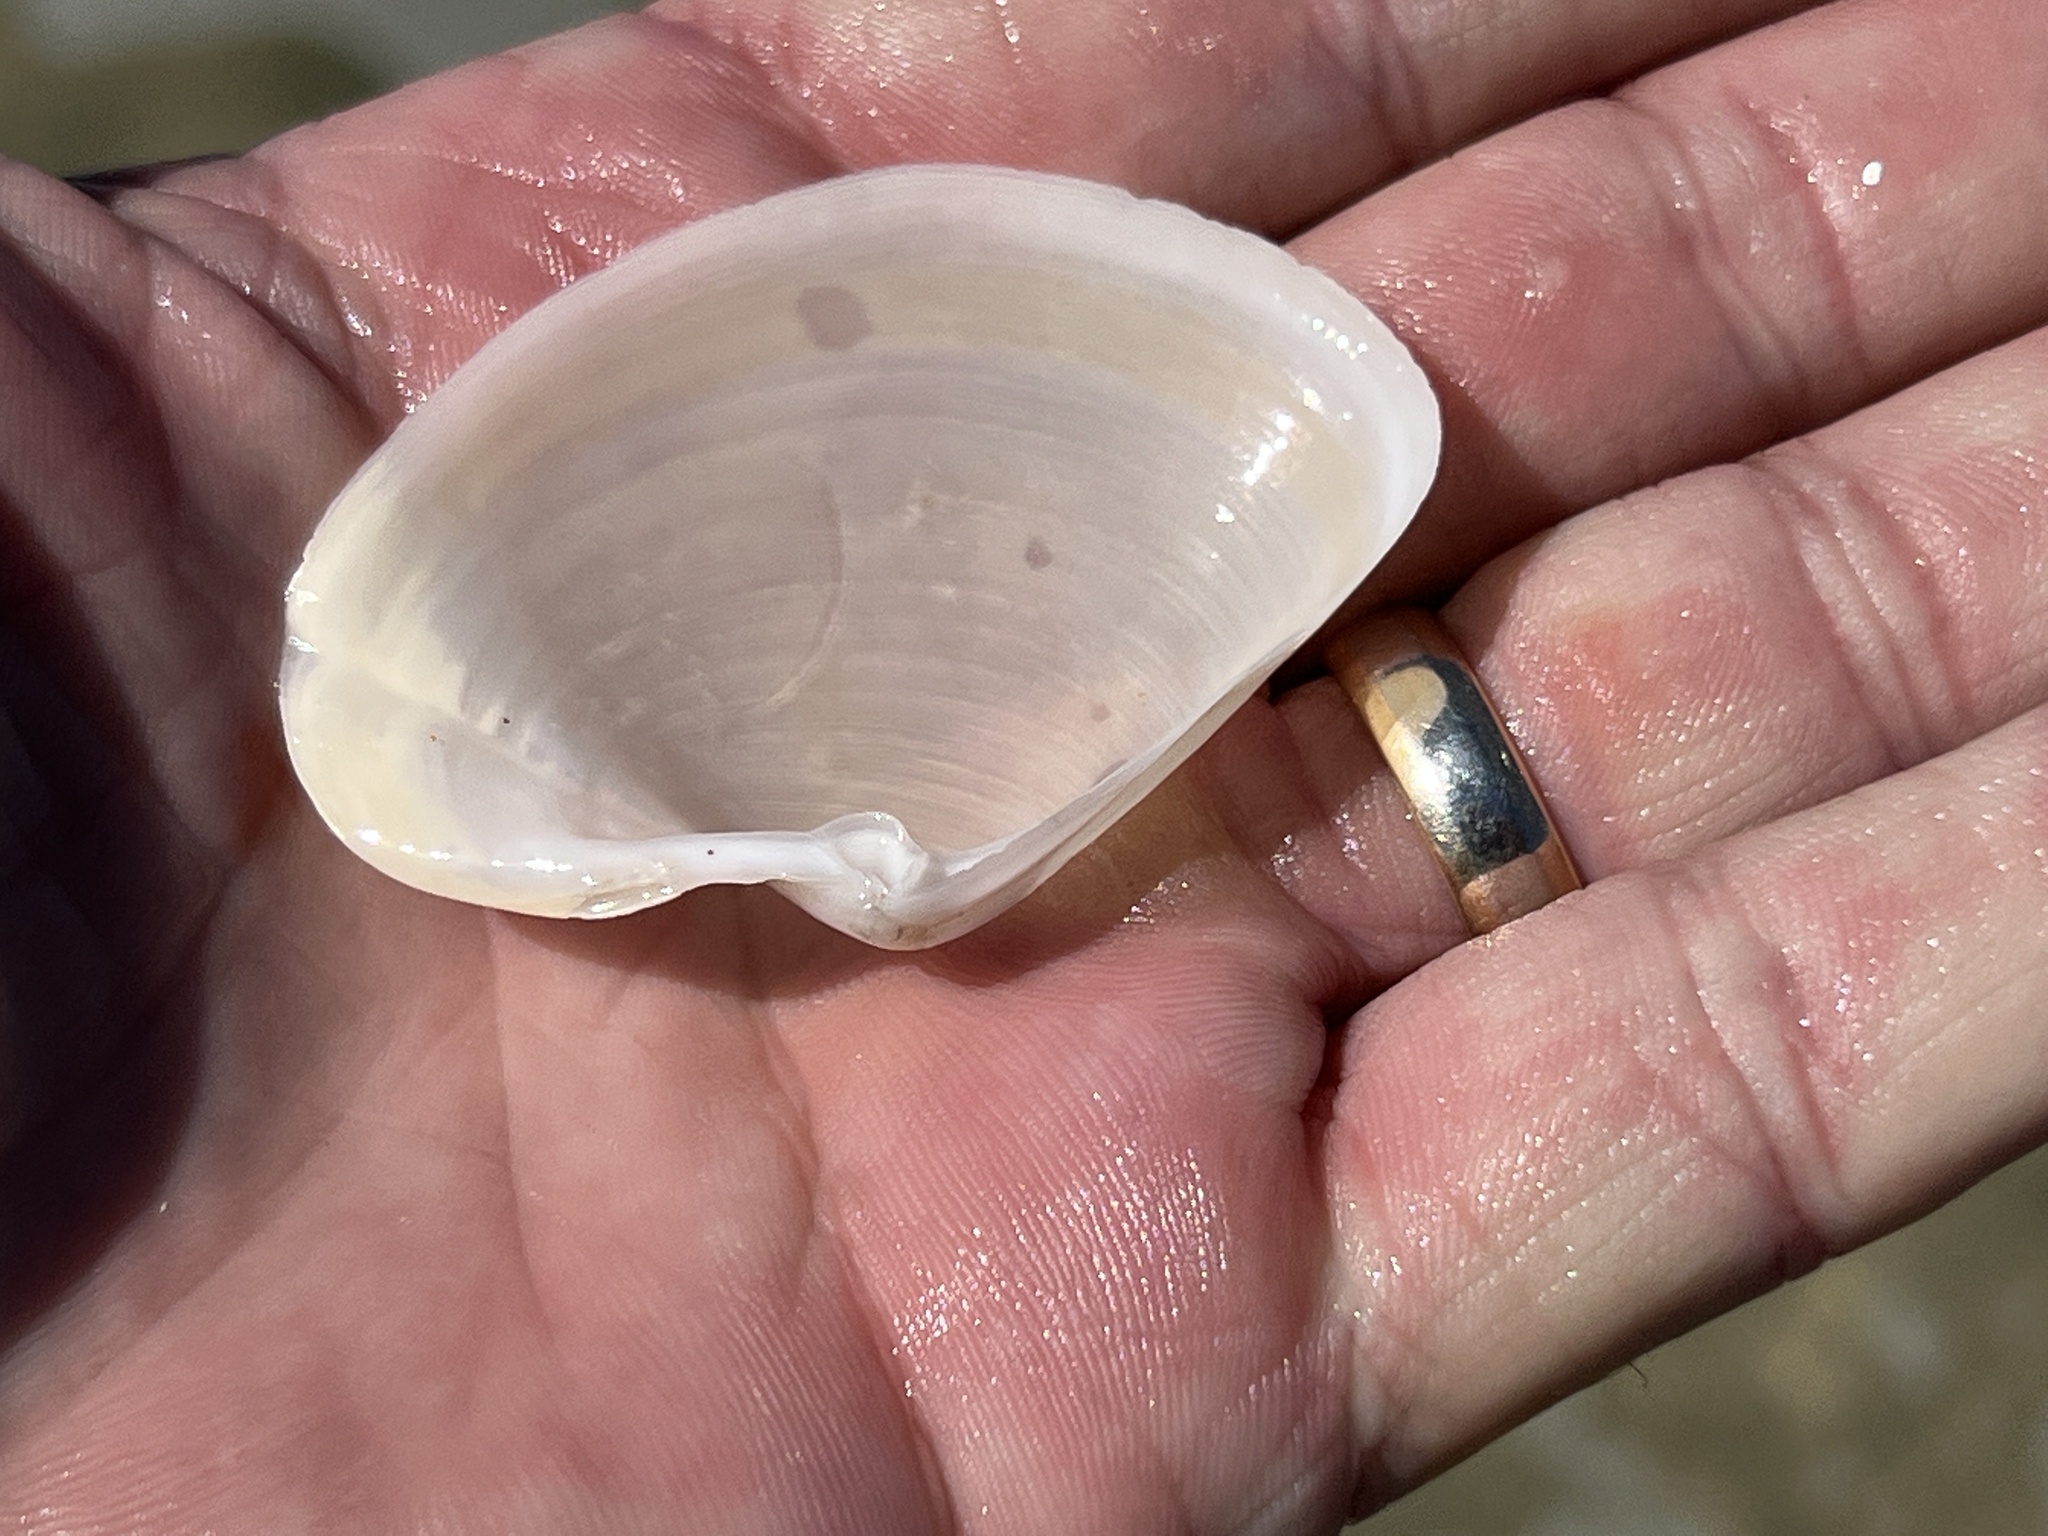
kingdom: Animalia
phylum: Mollusca
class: Bivalvia
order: Venerida
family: Anatinellidae
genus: Anatina
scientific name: Anatina anatina
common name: Smooth duckclam
